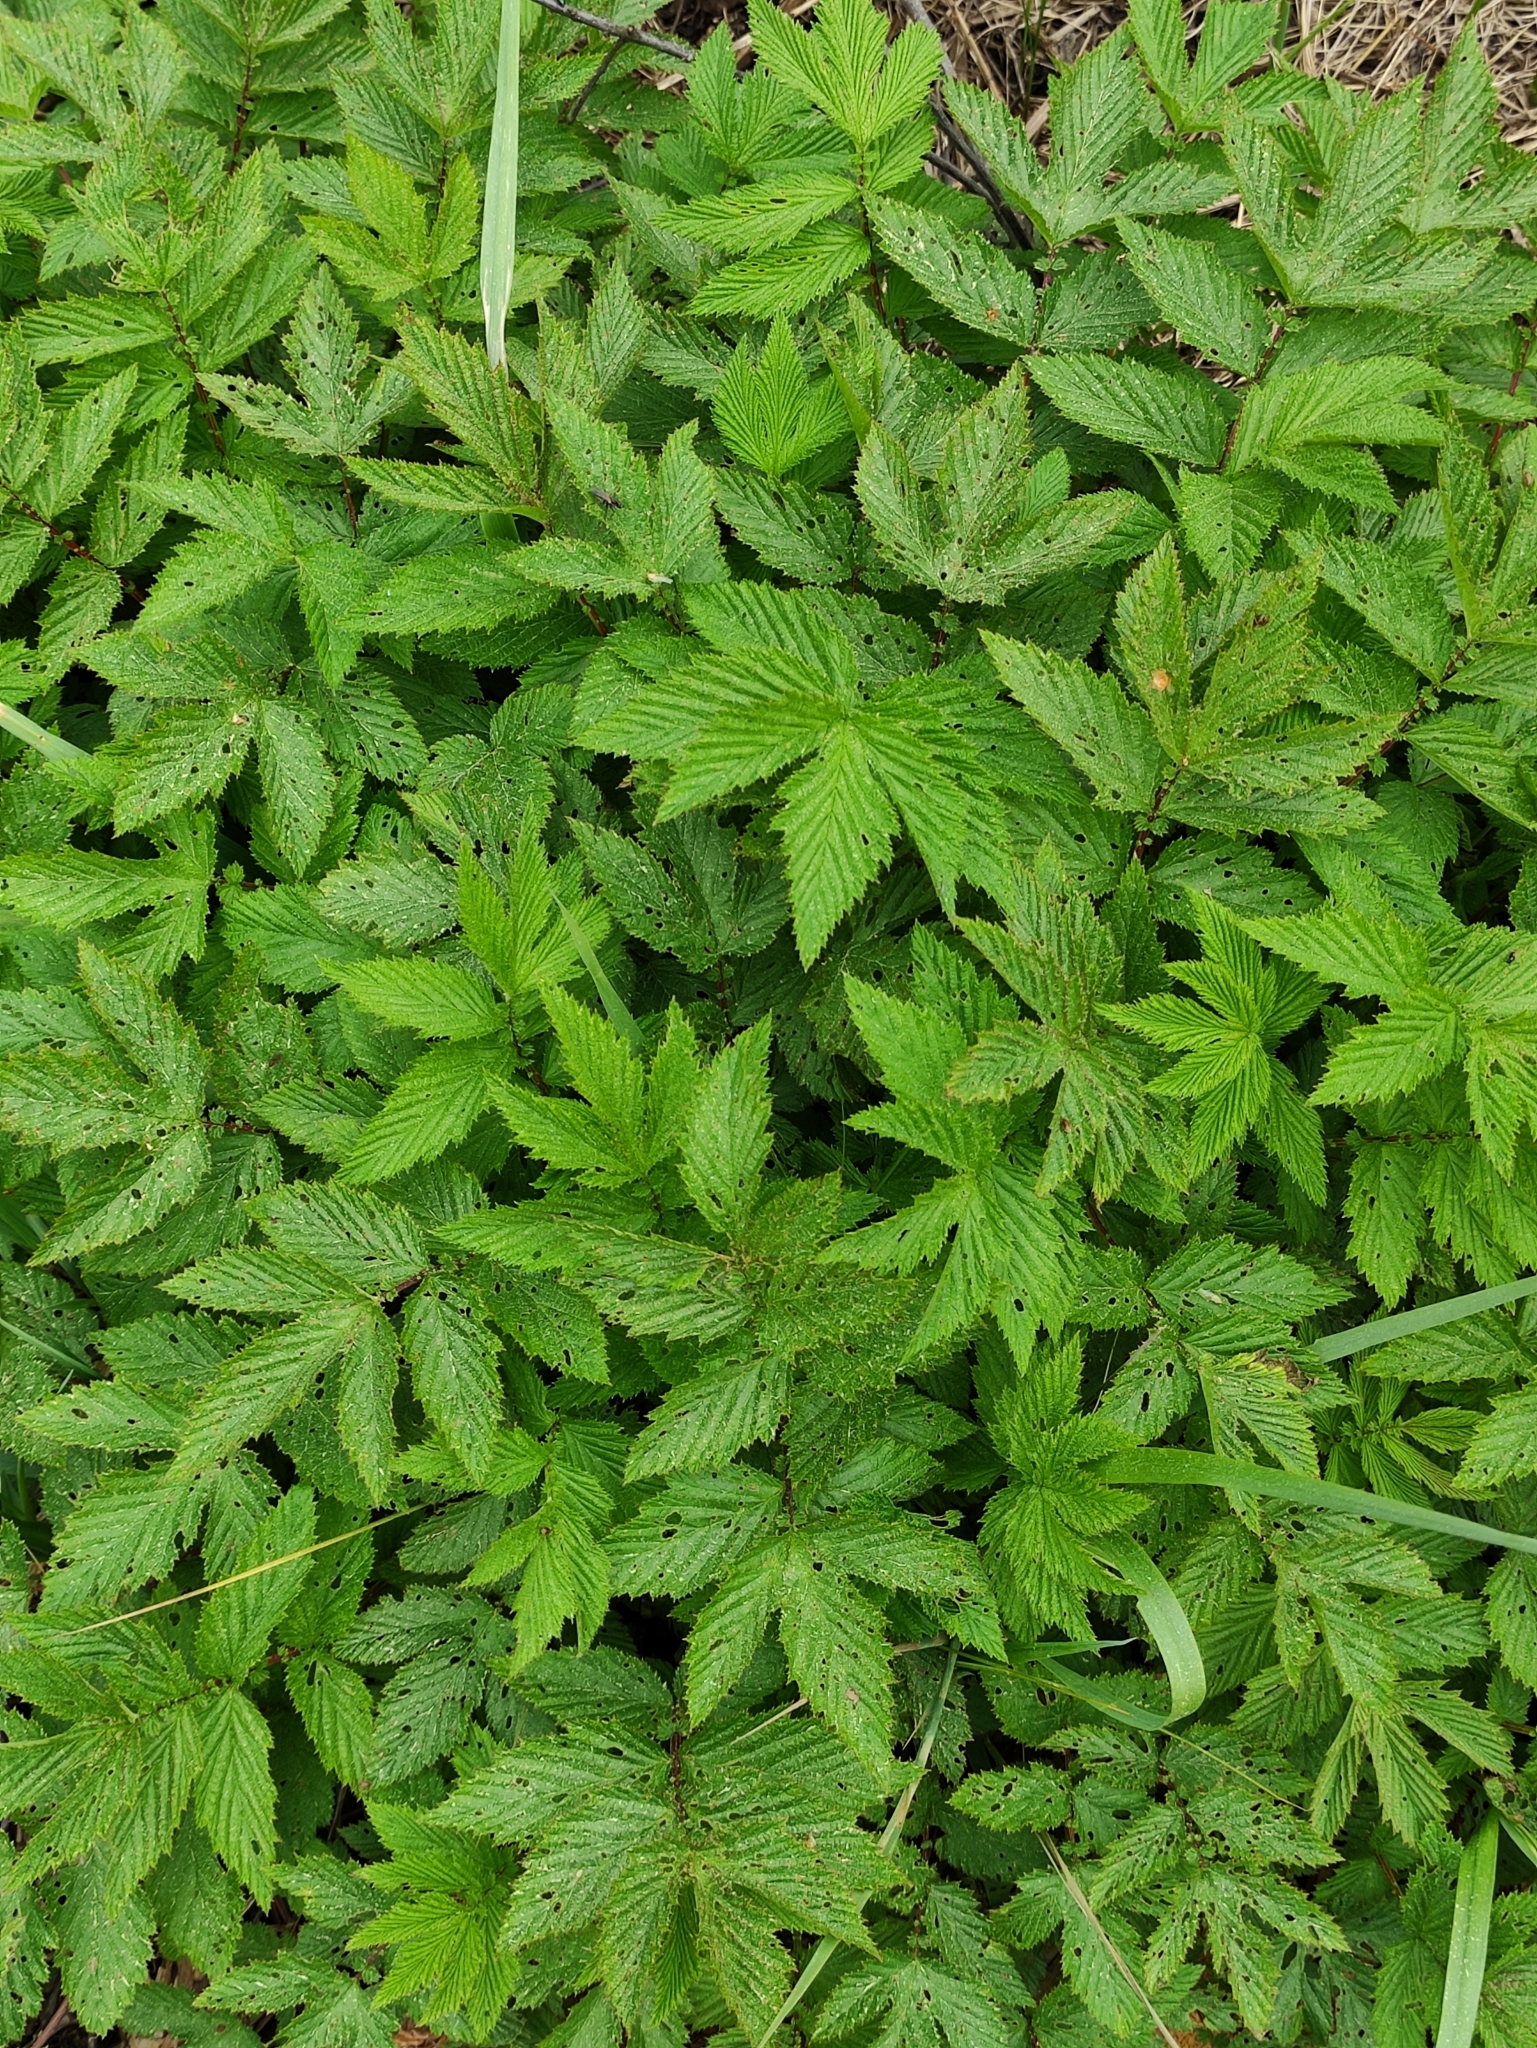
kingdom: Plantae
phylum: Tracheophyta
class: Magnoliopsida
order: Rosales
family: Rosaceae
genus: Filipendula
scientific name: Filipendula ulmaria
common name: Meadowsweet
